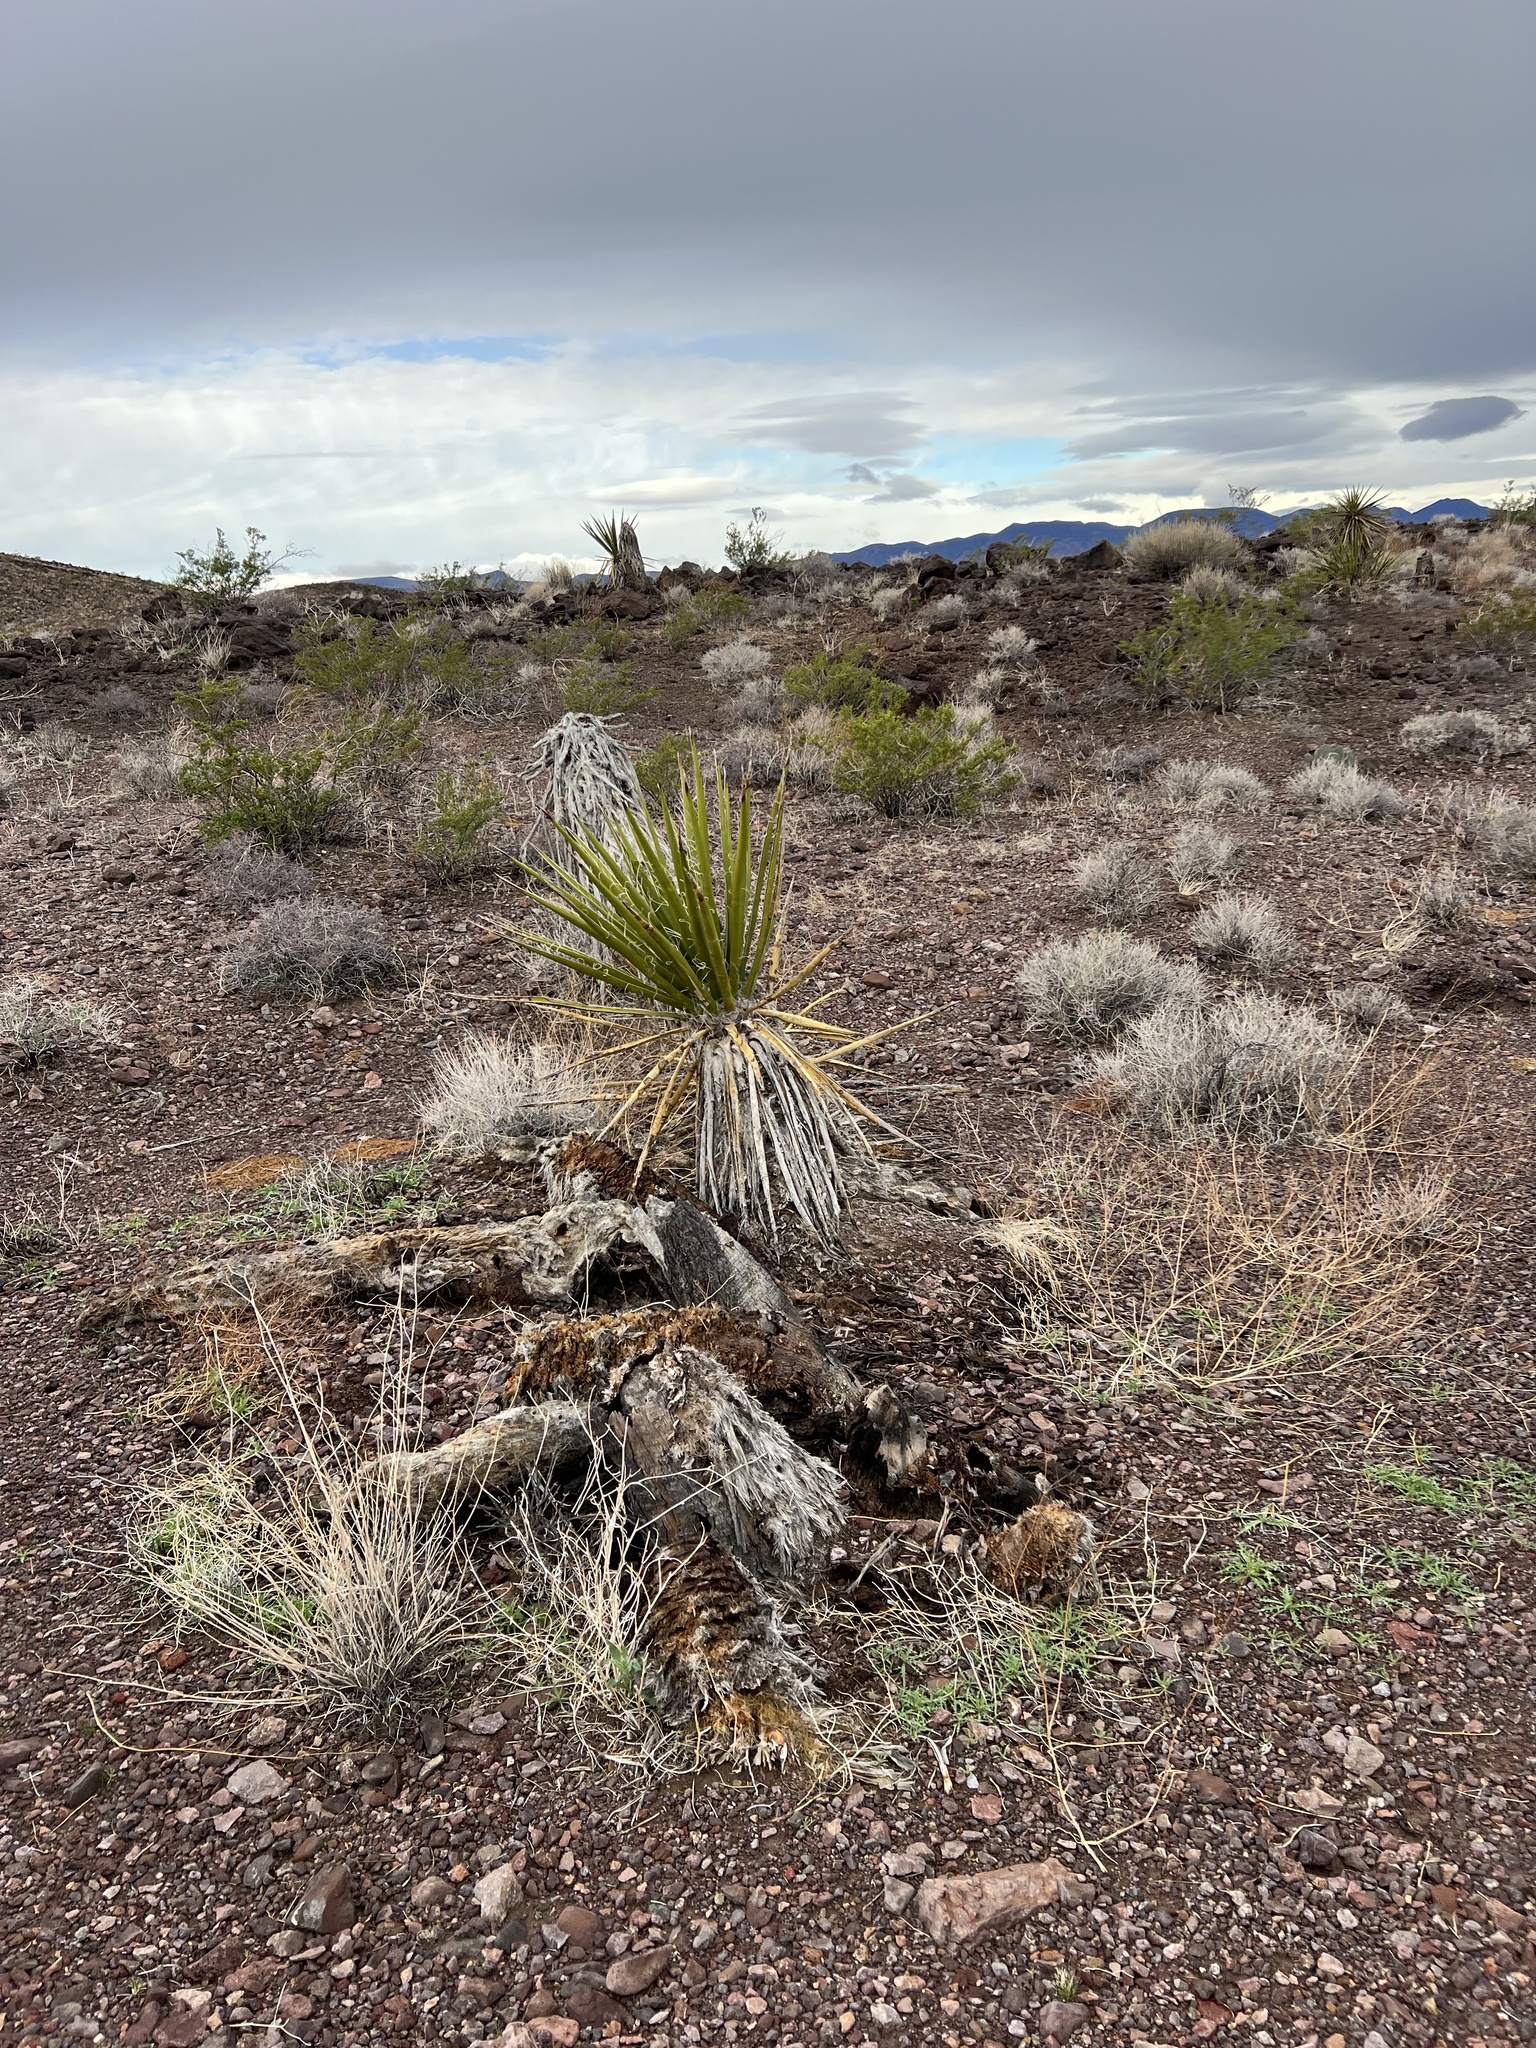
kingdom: Plantae
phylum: Tracheophyta
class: Liliopsida
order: Asparagales
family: Asparagaceae
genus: Yucca
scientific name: Yucca schidigera
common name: Mojave yucca
